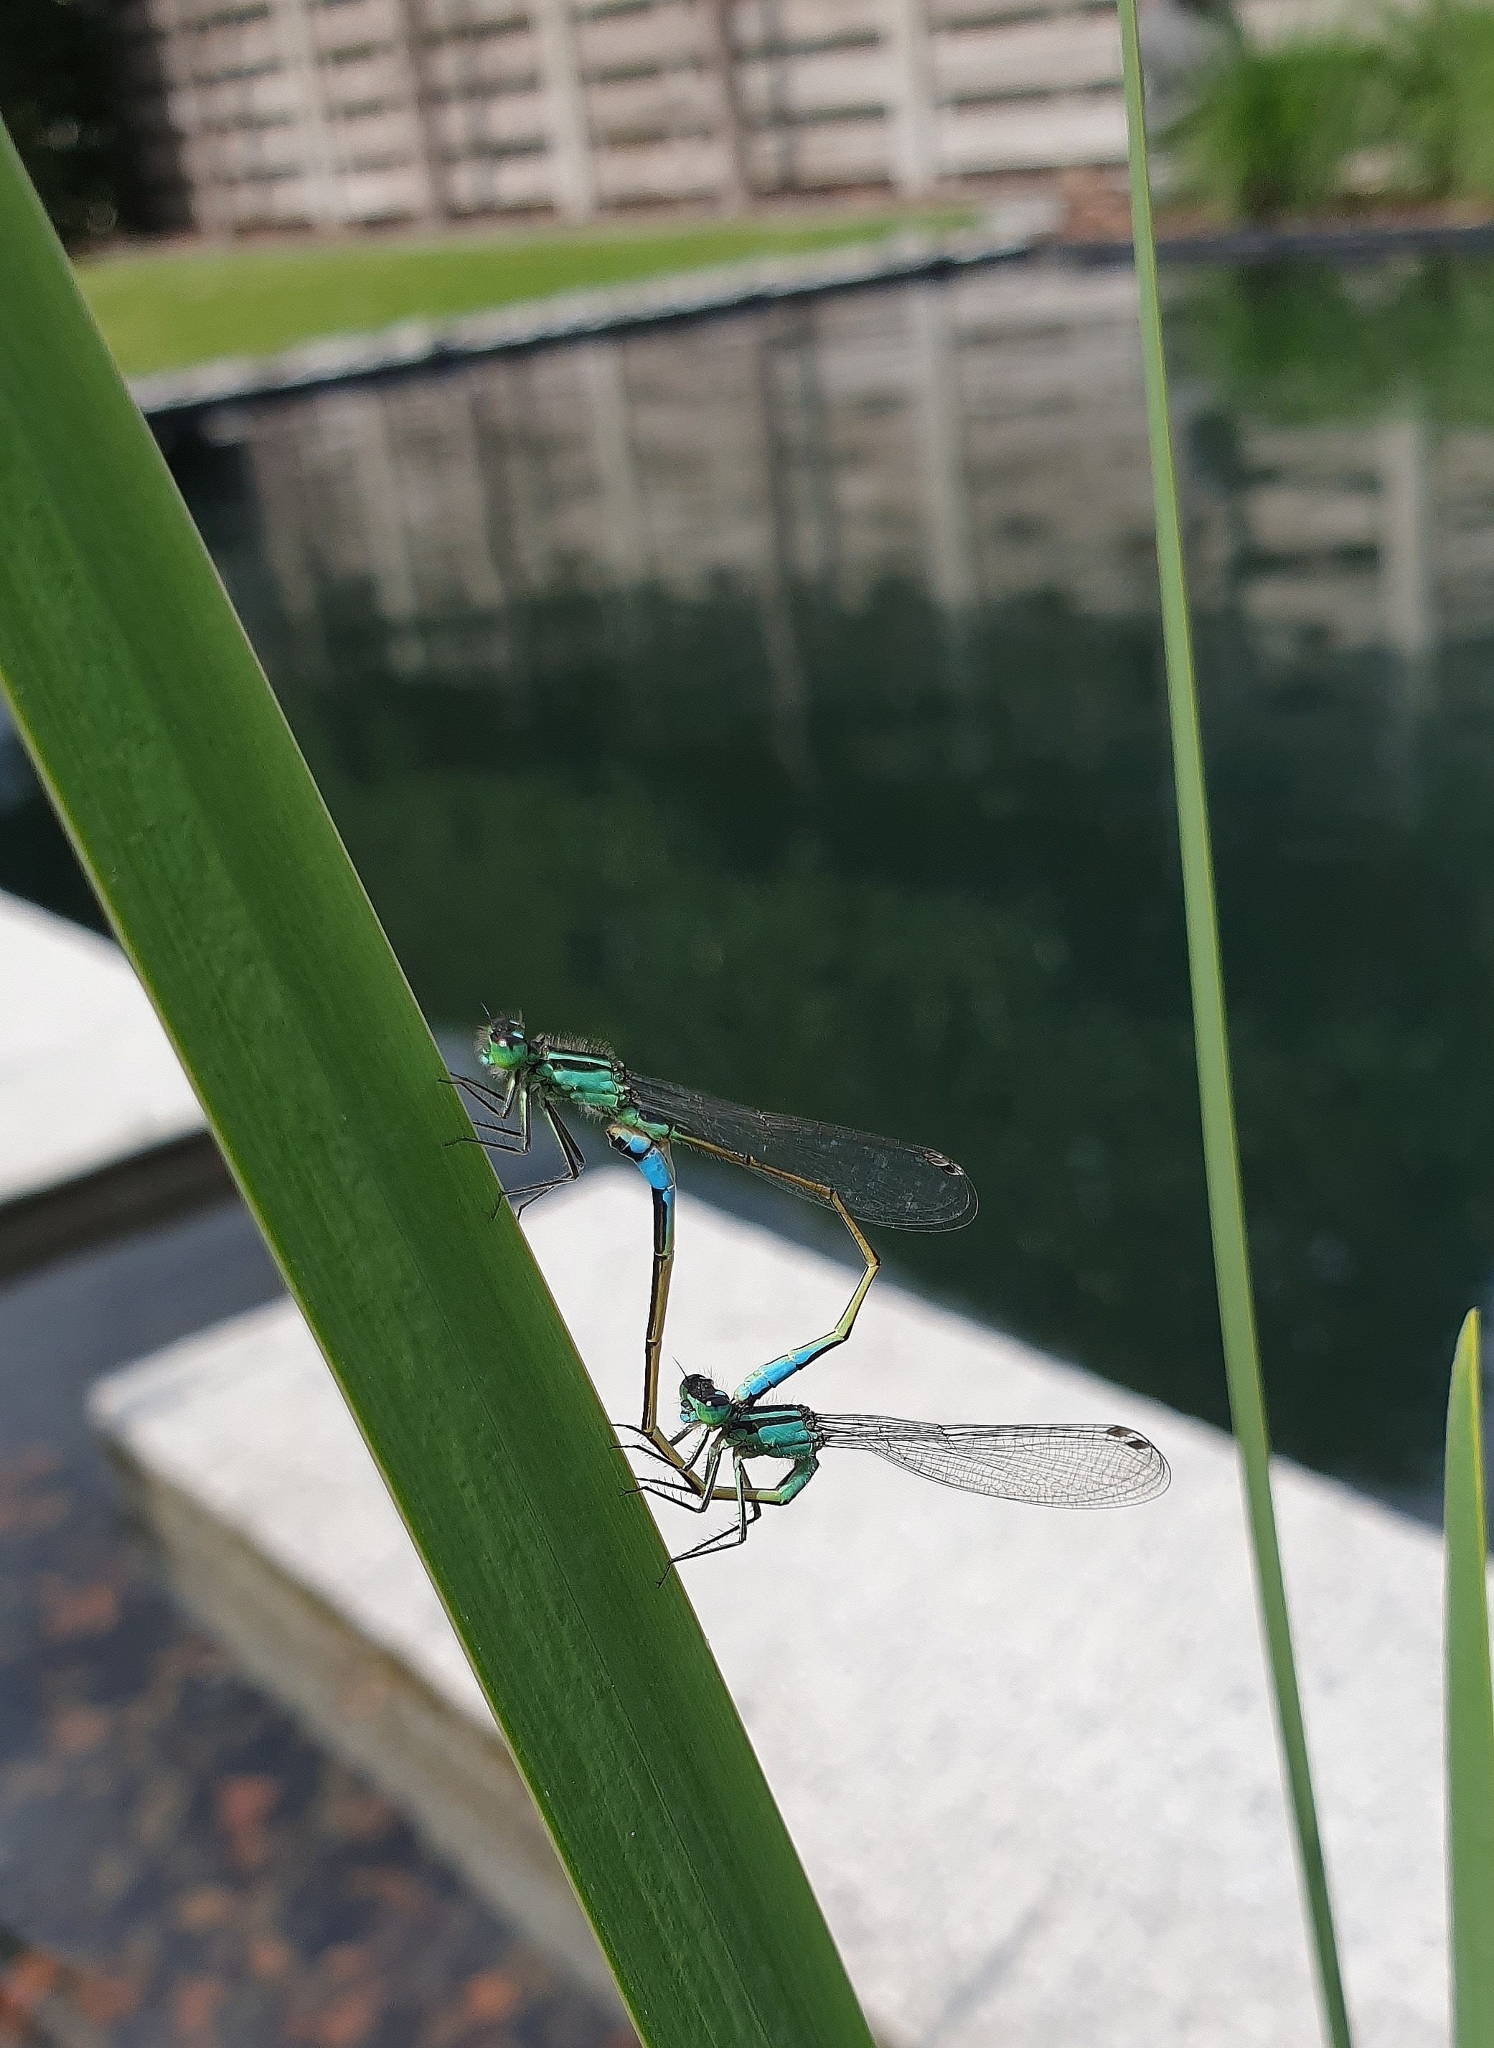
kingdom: Animalia
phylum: Arthropoda
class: Insecta
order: Odonata
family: Coenagrionidae
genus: Ischnura
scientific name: Ischnura elegans
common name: Blue-tailed damselfly
